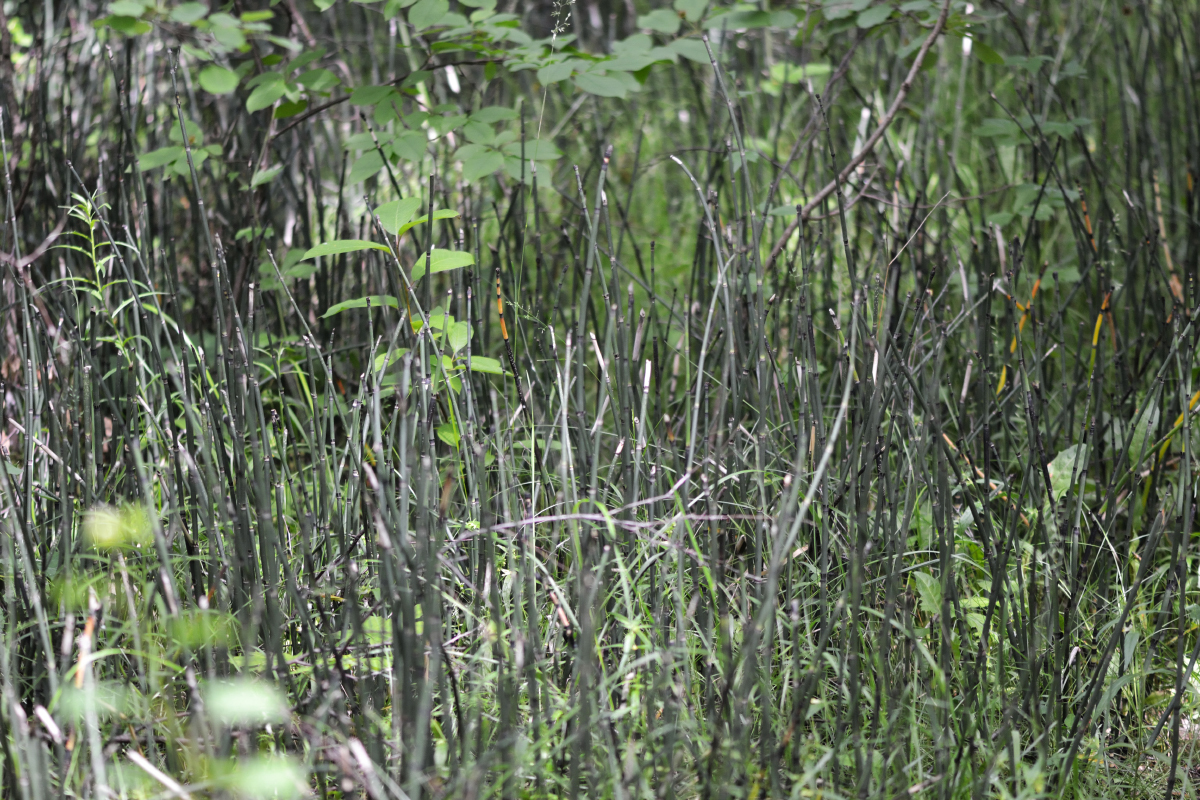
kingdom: Plantae
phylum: Tracheophyta
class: Polypodiopsida
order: Equisetales
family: Equisetaceae
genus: Equisetum
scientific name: Equisetum hyemale
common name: Rough horsetail
